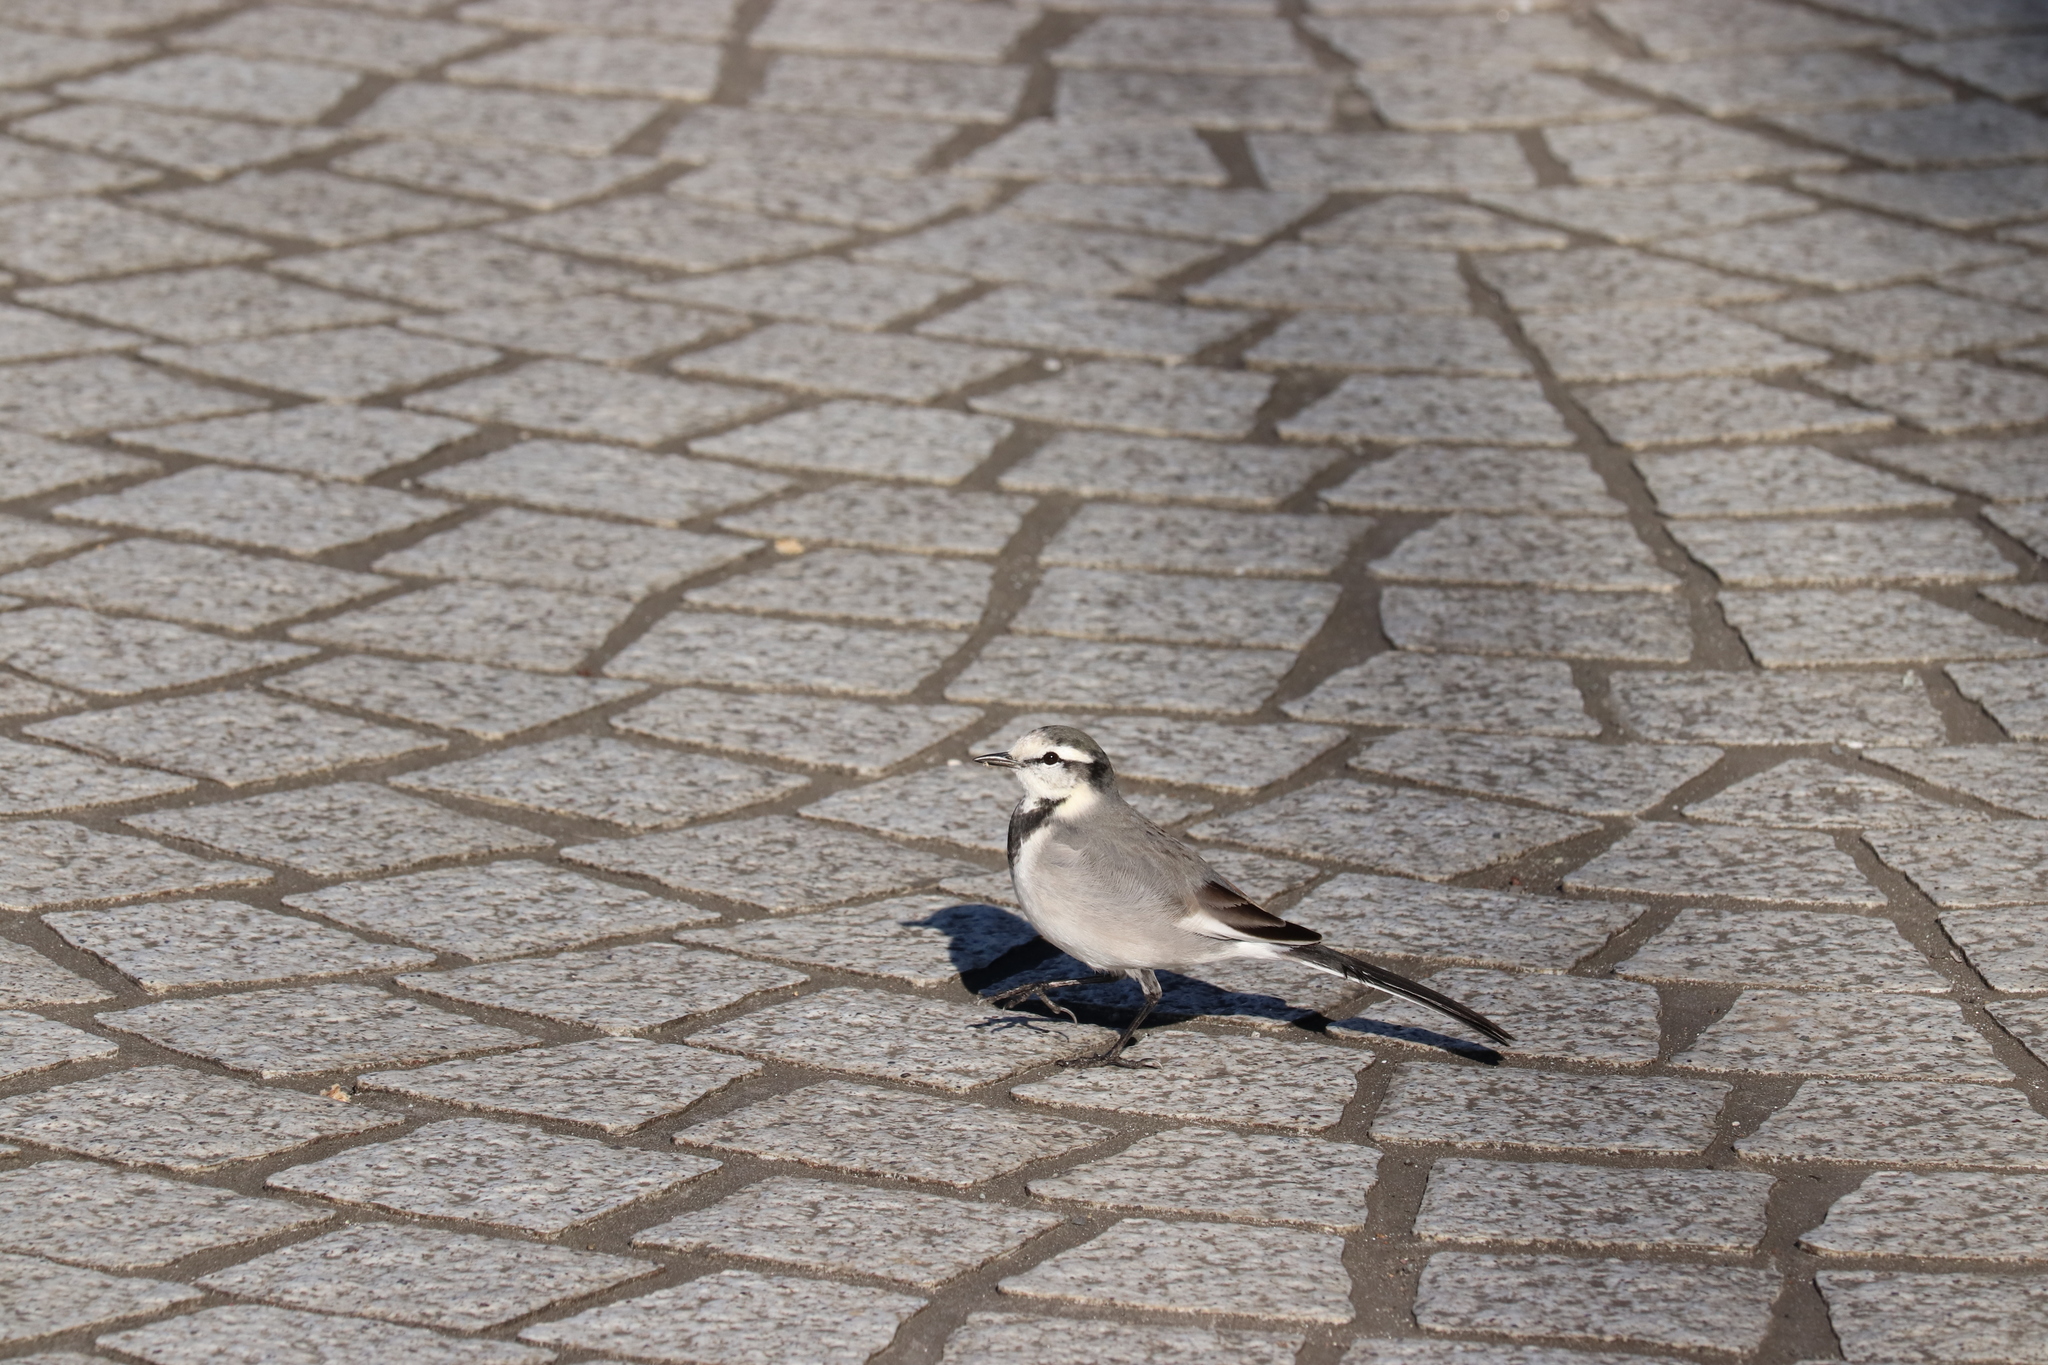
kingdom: Animalia
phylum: Chordata
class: Aves
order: Passeriformes
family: Motacillidae
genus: Motacilla
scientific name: Motacilla alba
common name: White wagtail
